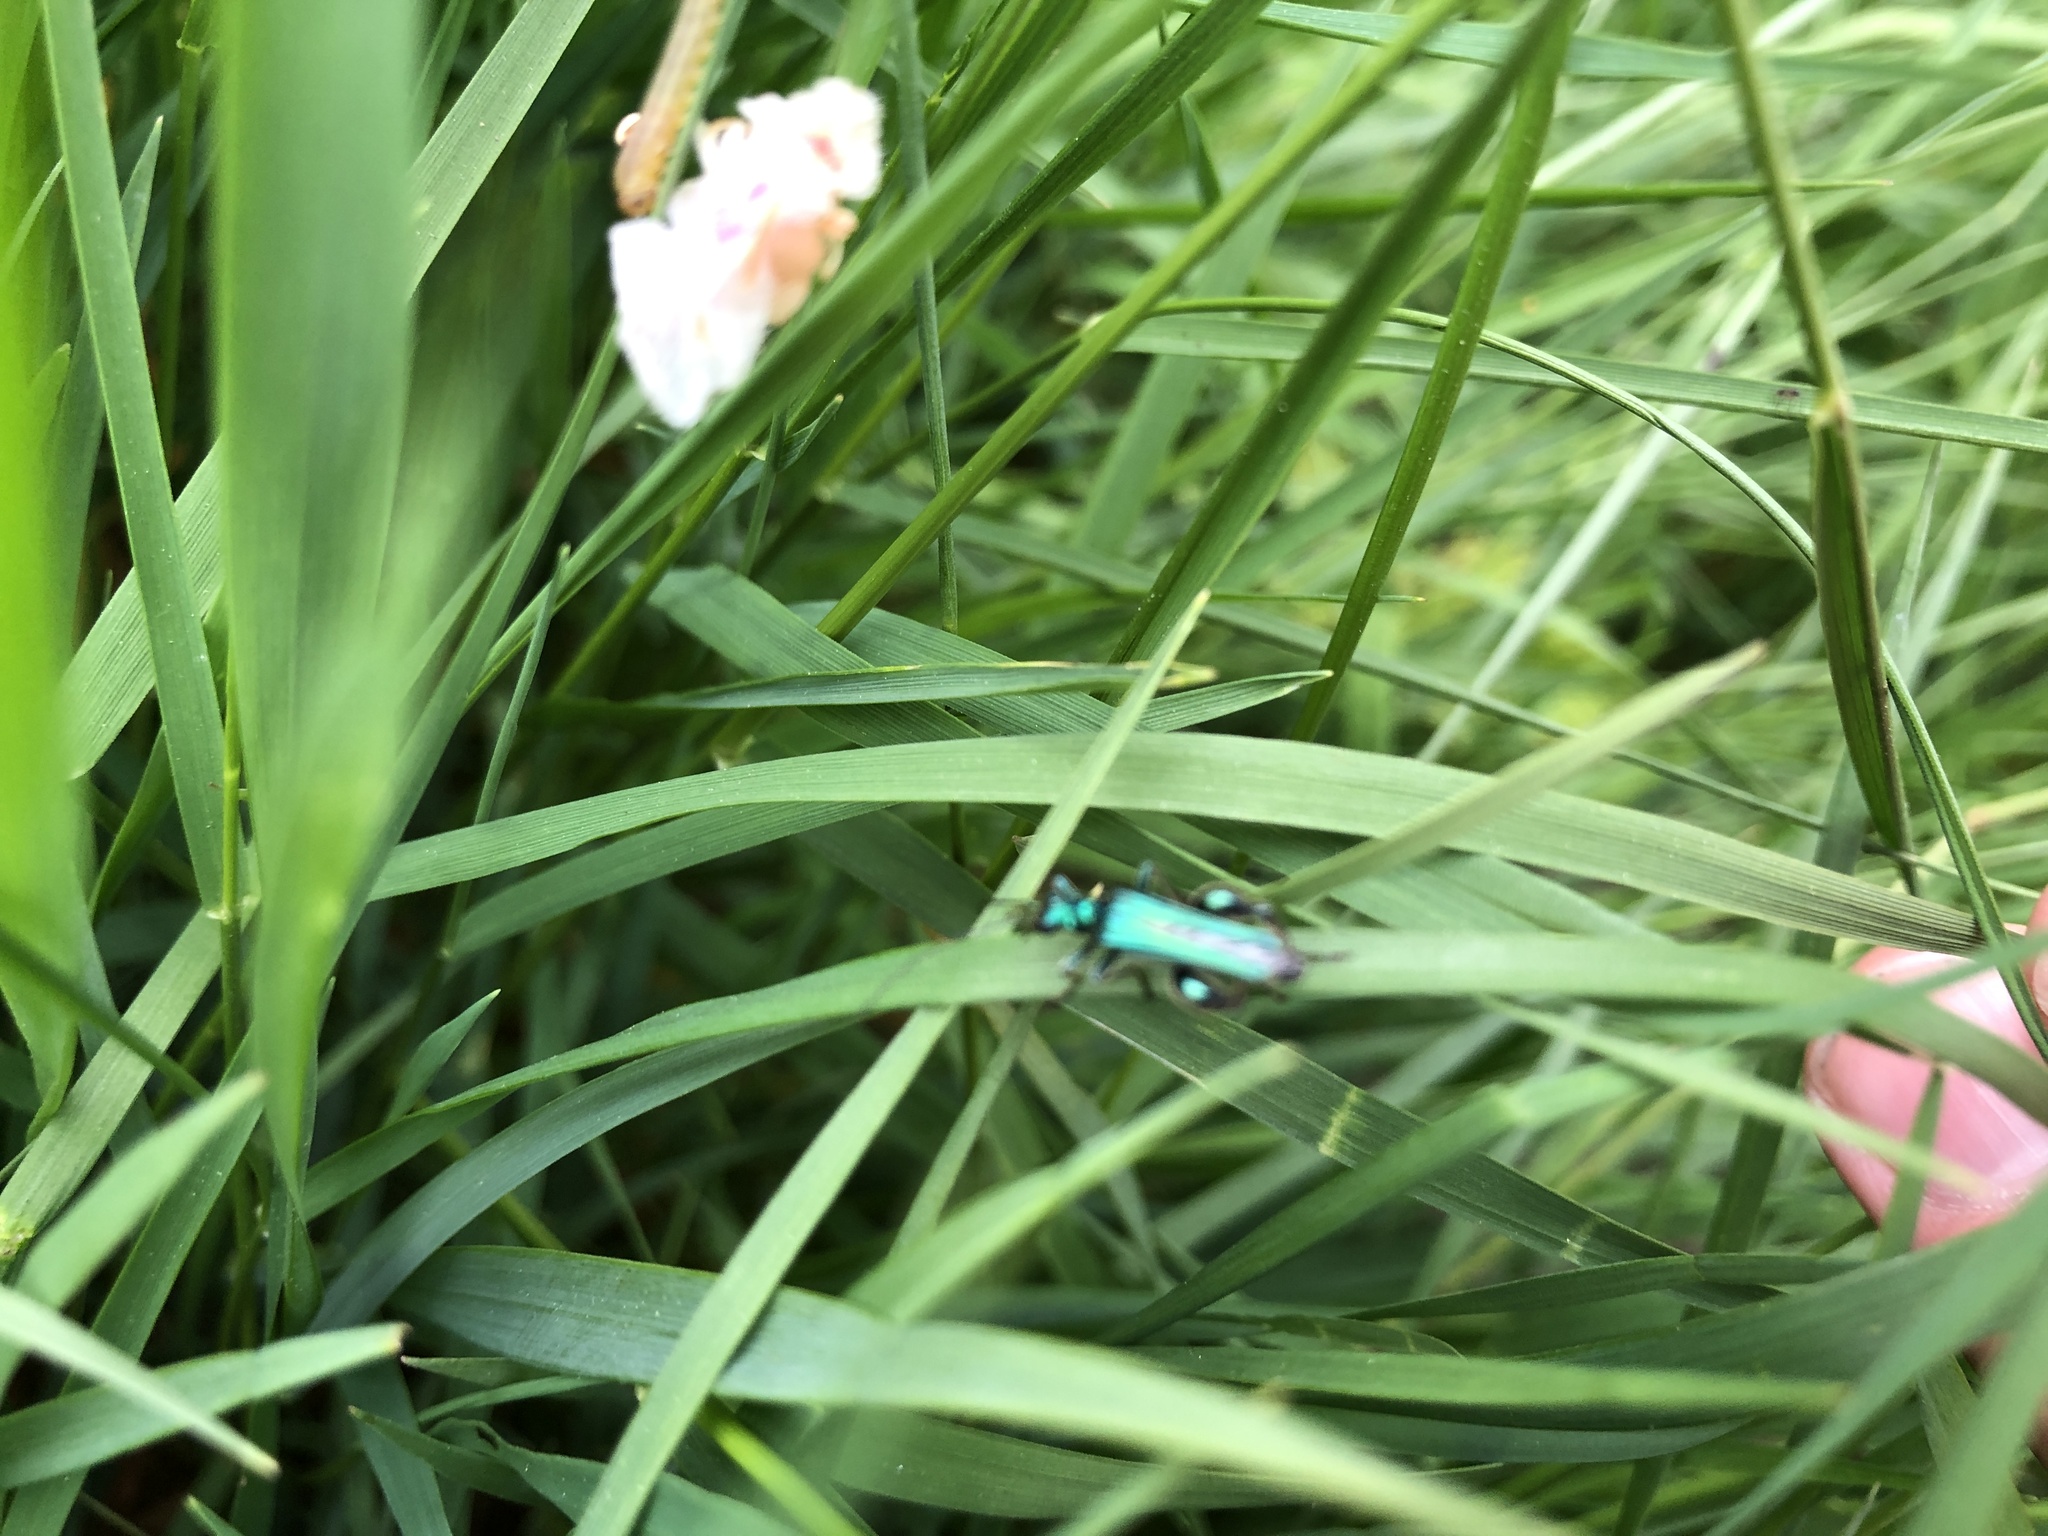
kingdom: Animalia
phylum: Arthropoda
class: Insecta
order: Coleoptera
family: Oedemeridae
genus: Oedemera
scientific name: Oedemera nobilis
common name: Swollen-thighed beetle
